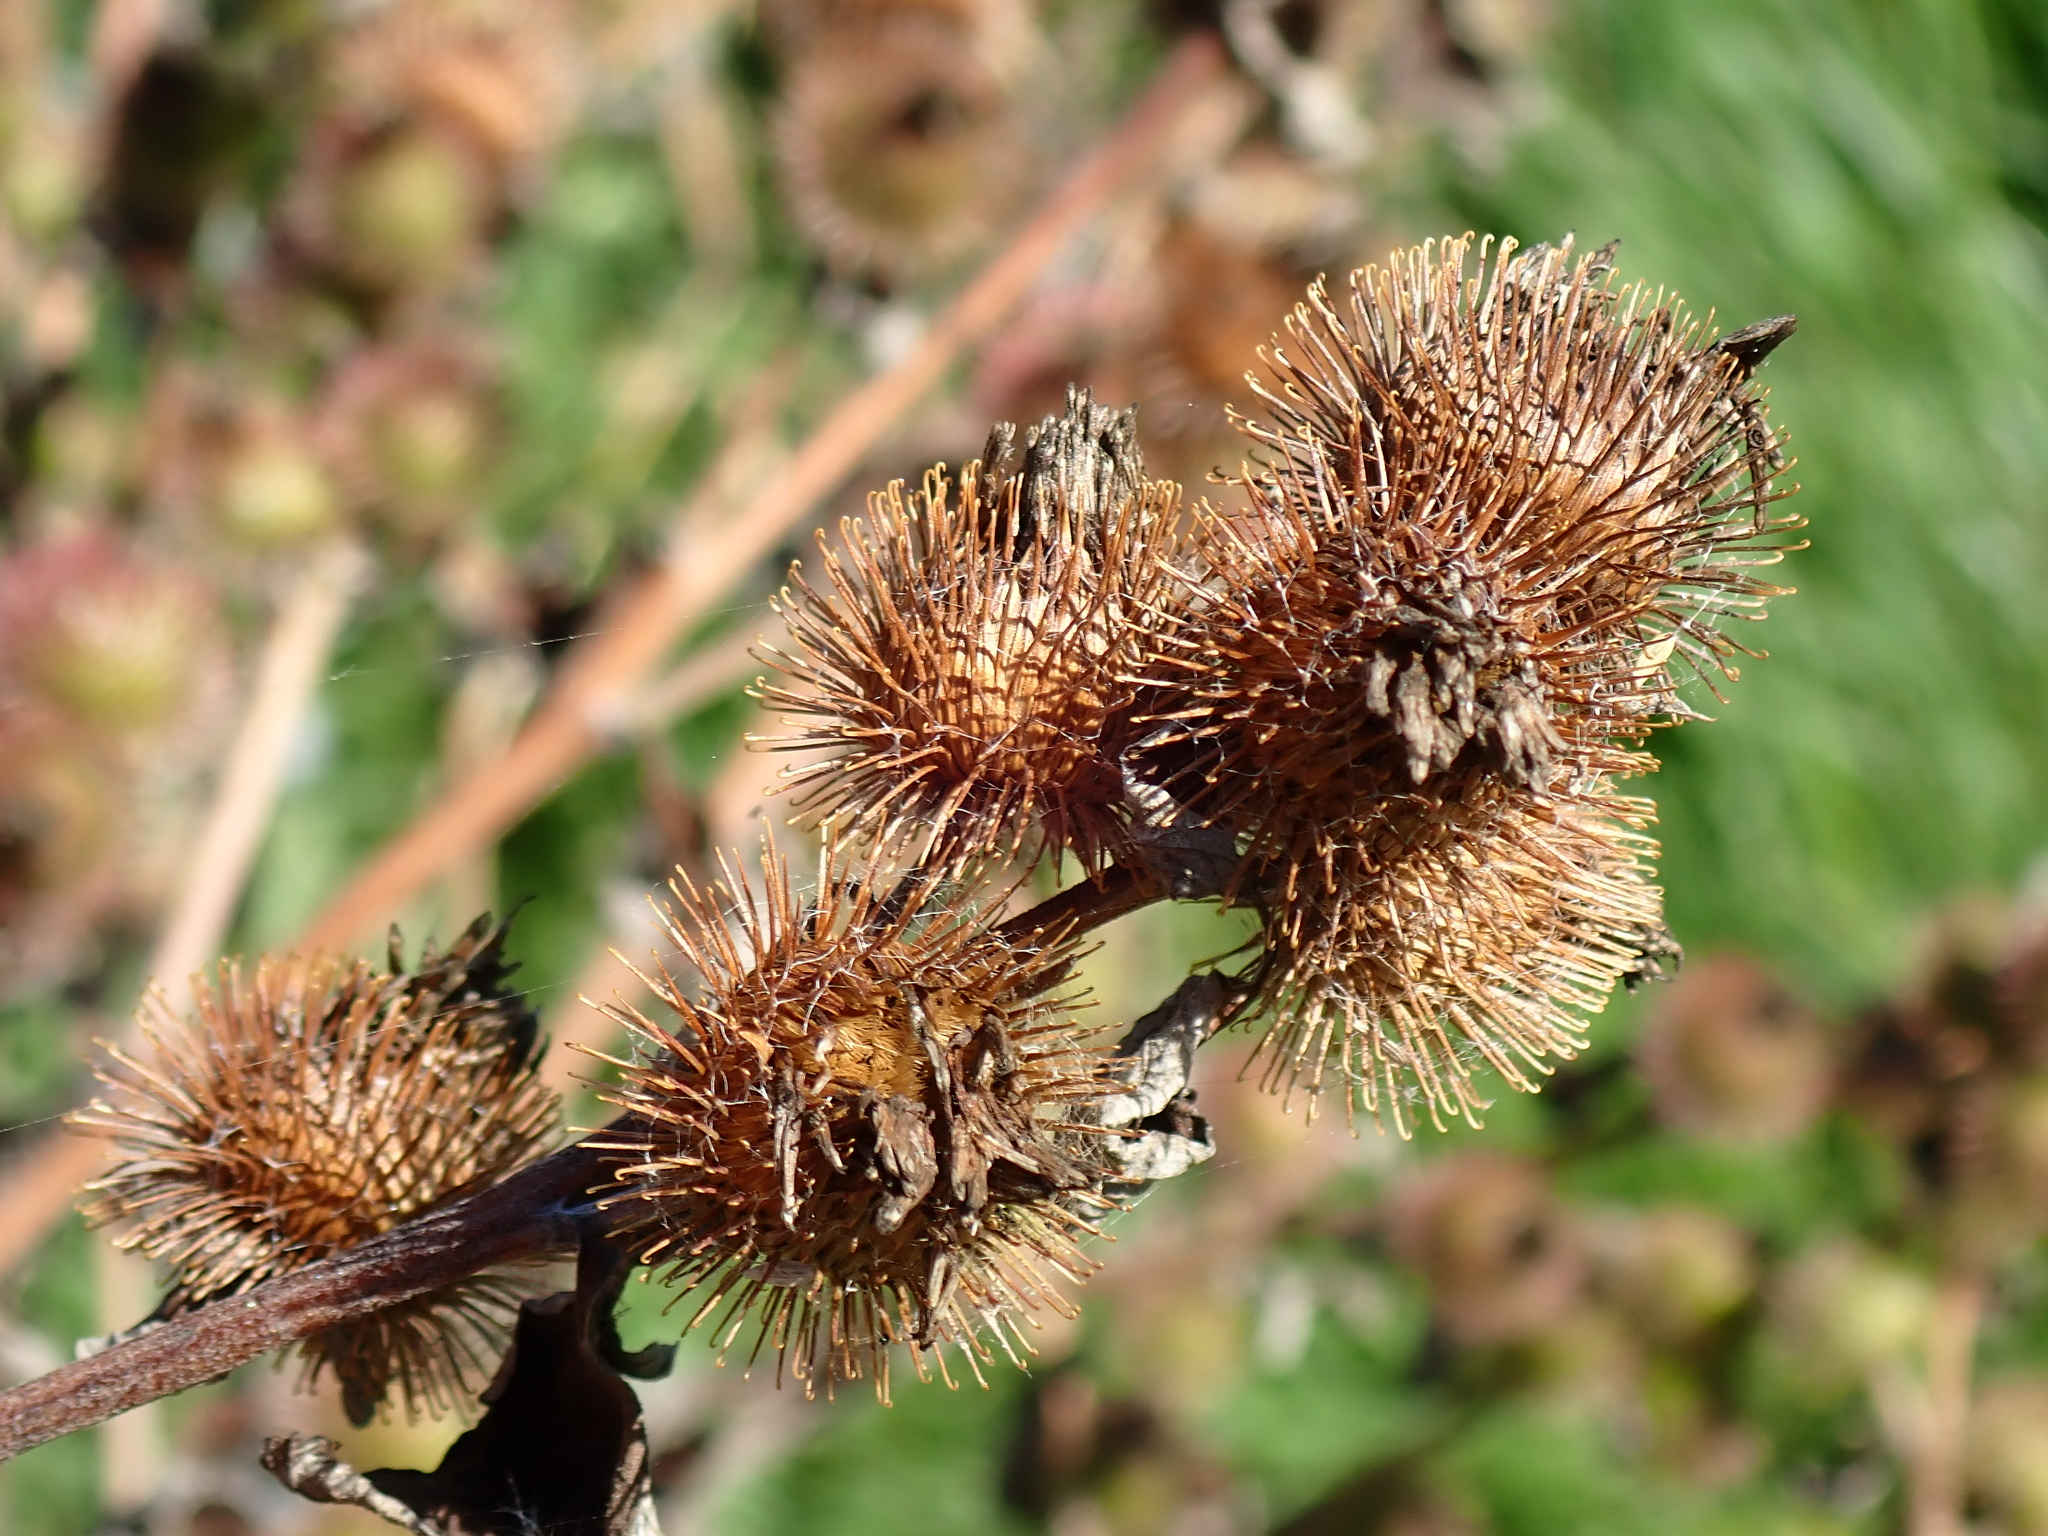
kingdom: Plantae
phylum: Tracheophyta
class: Magnoliopsida
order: Asterales
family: Asteraceae
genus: Arctium
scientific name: Arctium minus
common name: Lesser burdock
